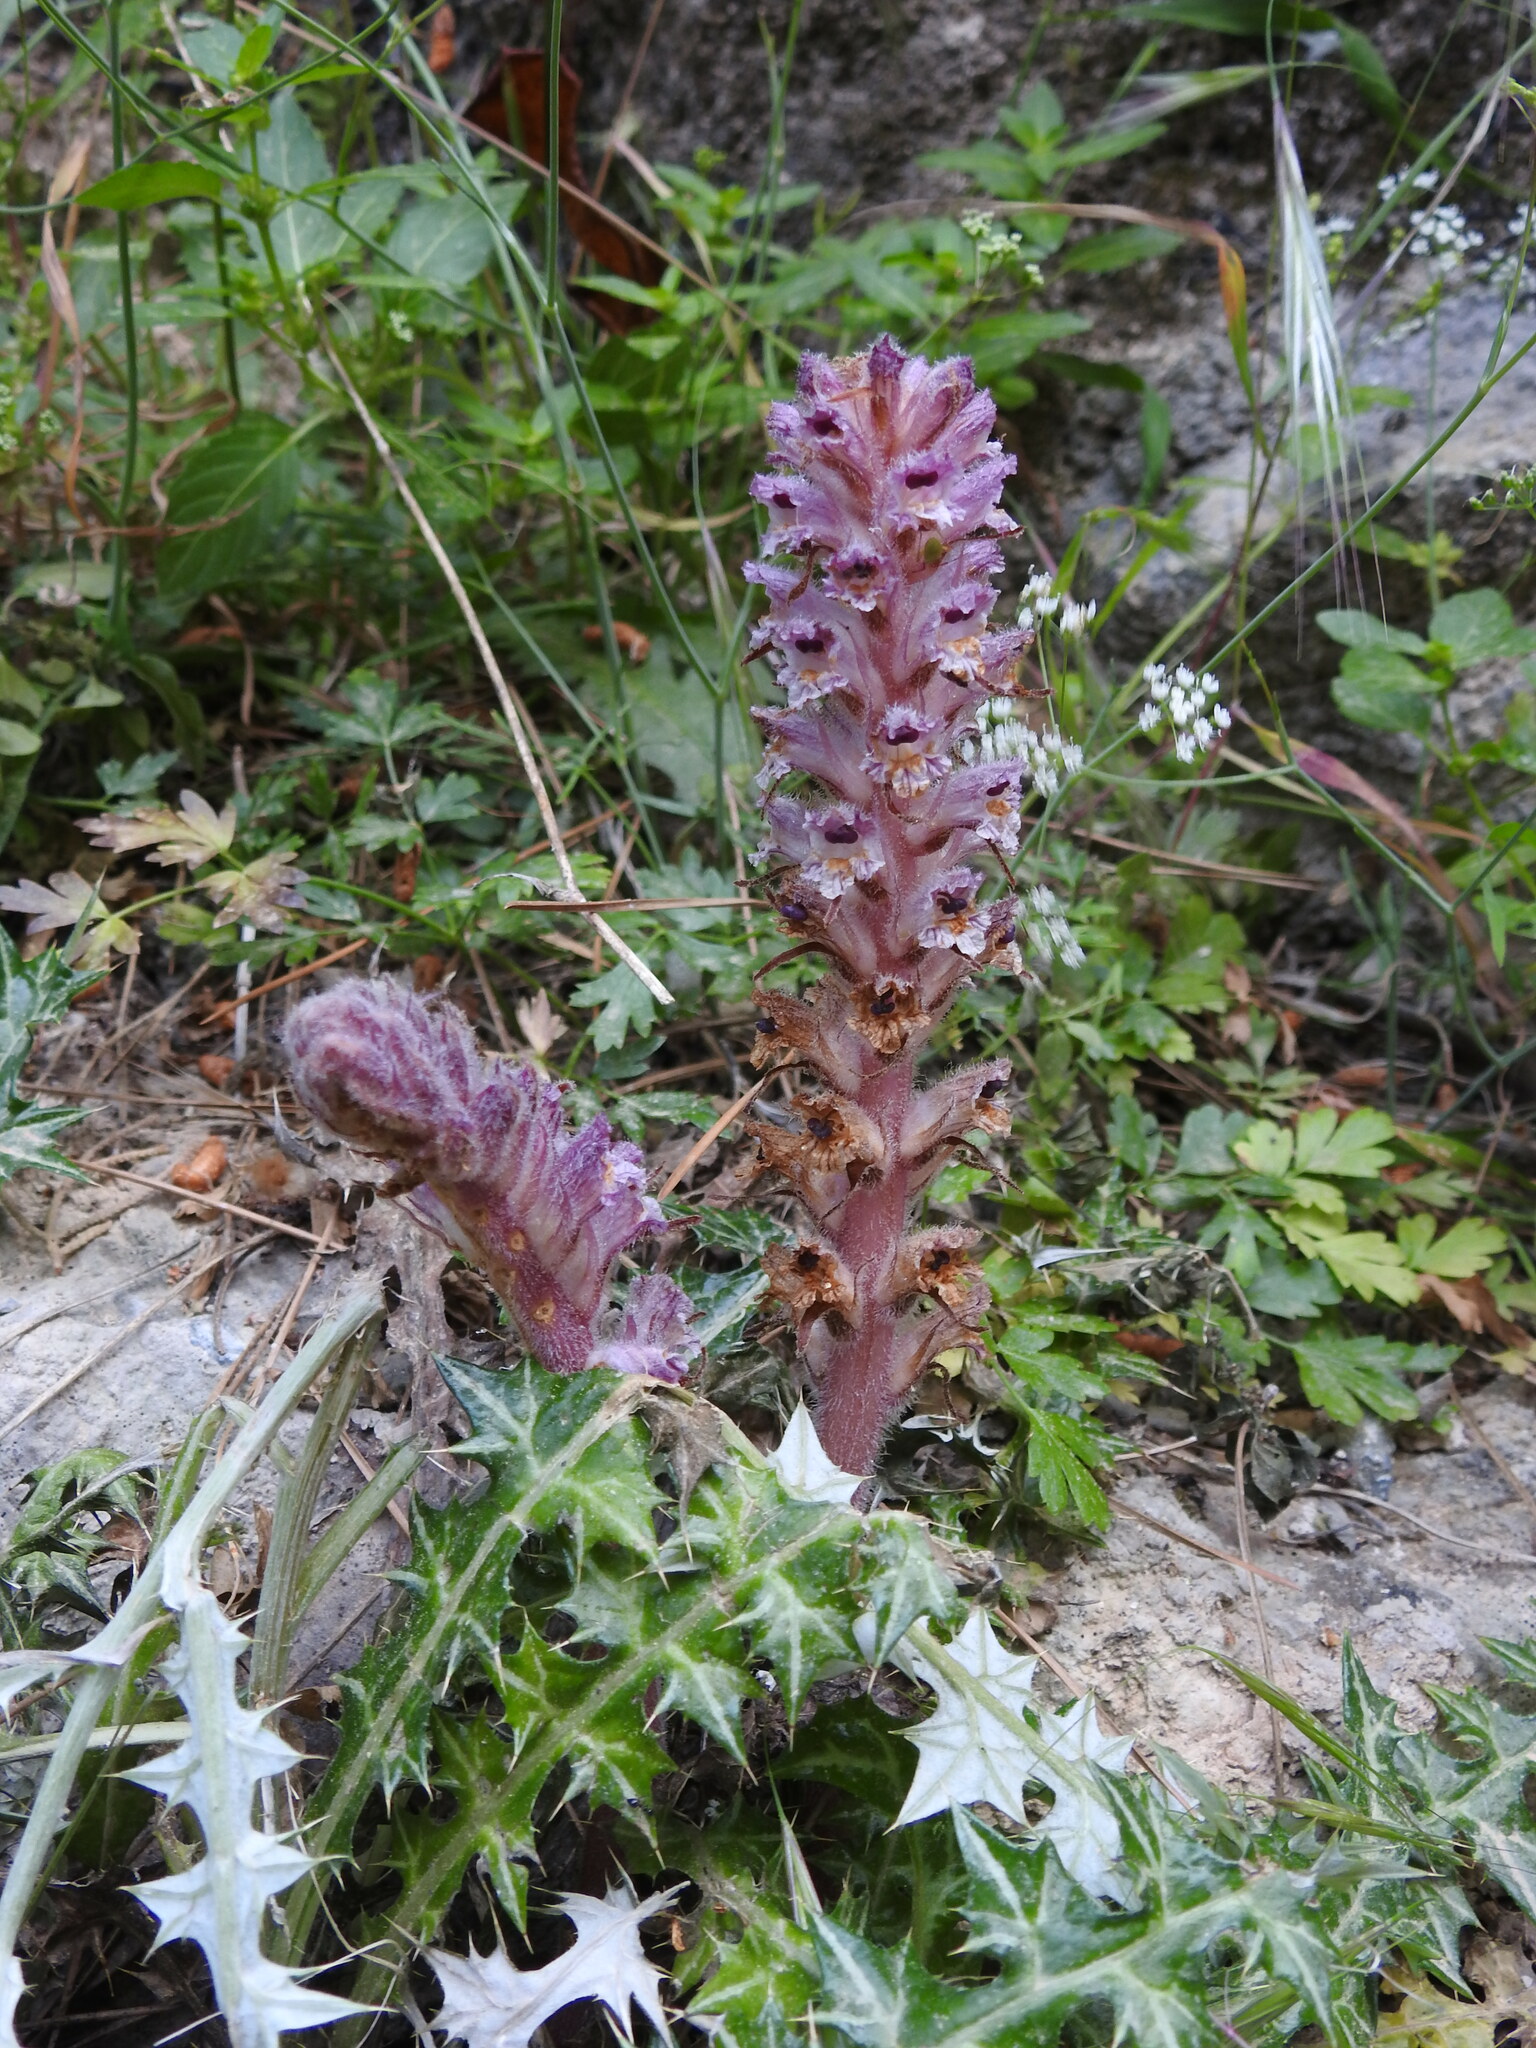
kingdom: Plantae
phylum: Tracheophyta
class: Magnoliopsida
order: Lamiales
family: Orobanchaceae
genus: Orobanche
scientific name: Orobanche pubescens
